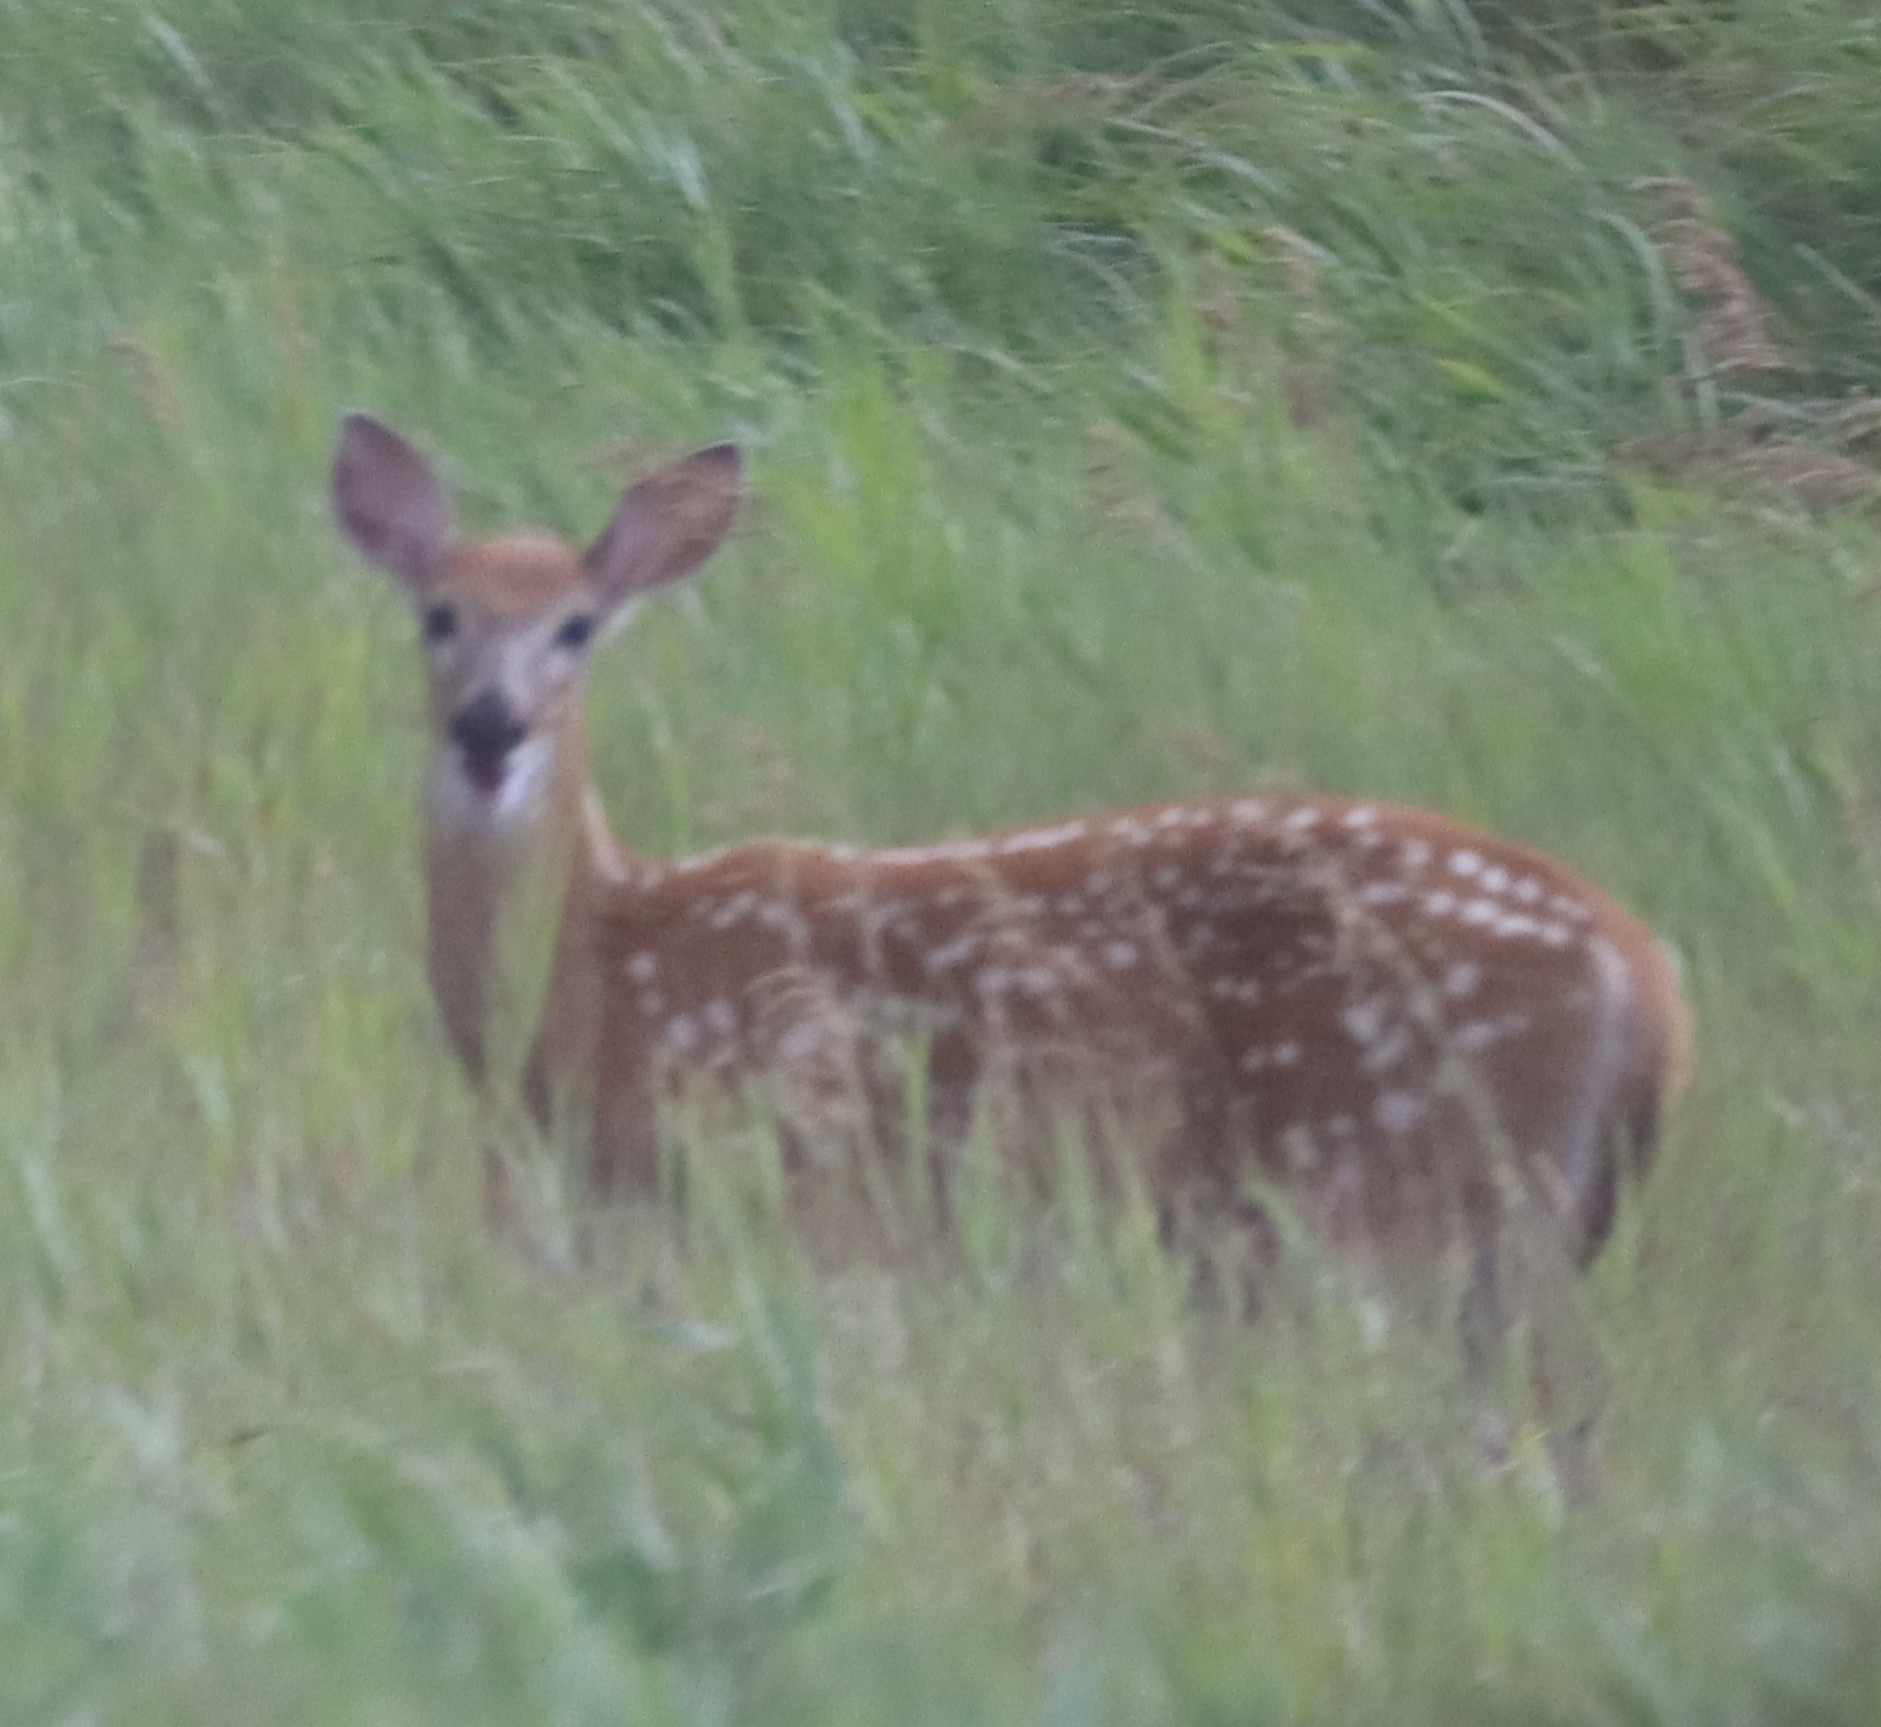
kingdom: Animalia
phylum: Chordata
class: Mammalia
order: Artiodactyla
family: Cervidae
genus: Odocoileus
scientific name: Odocoileus virginianus
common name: White-tailed deer
